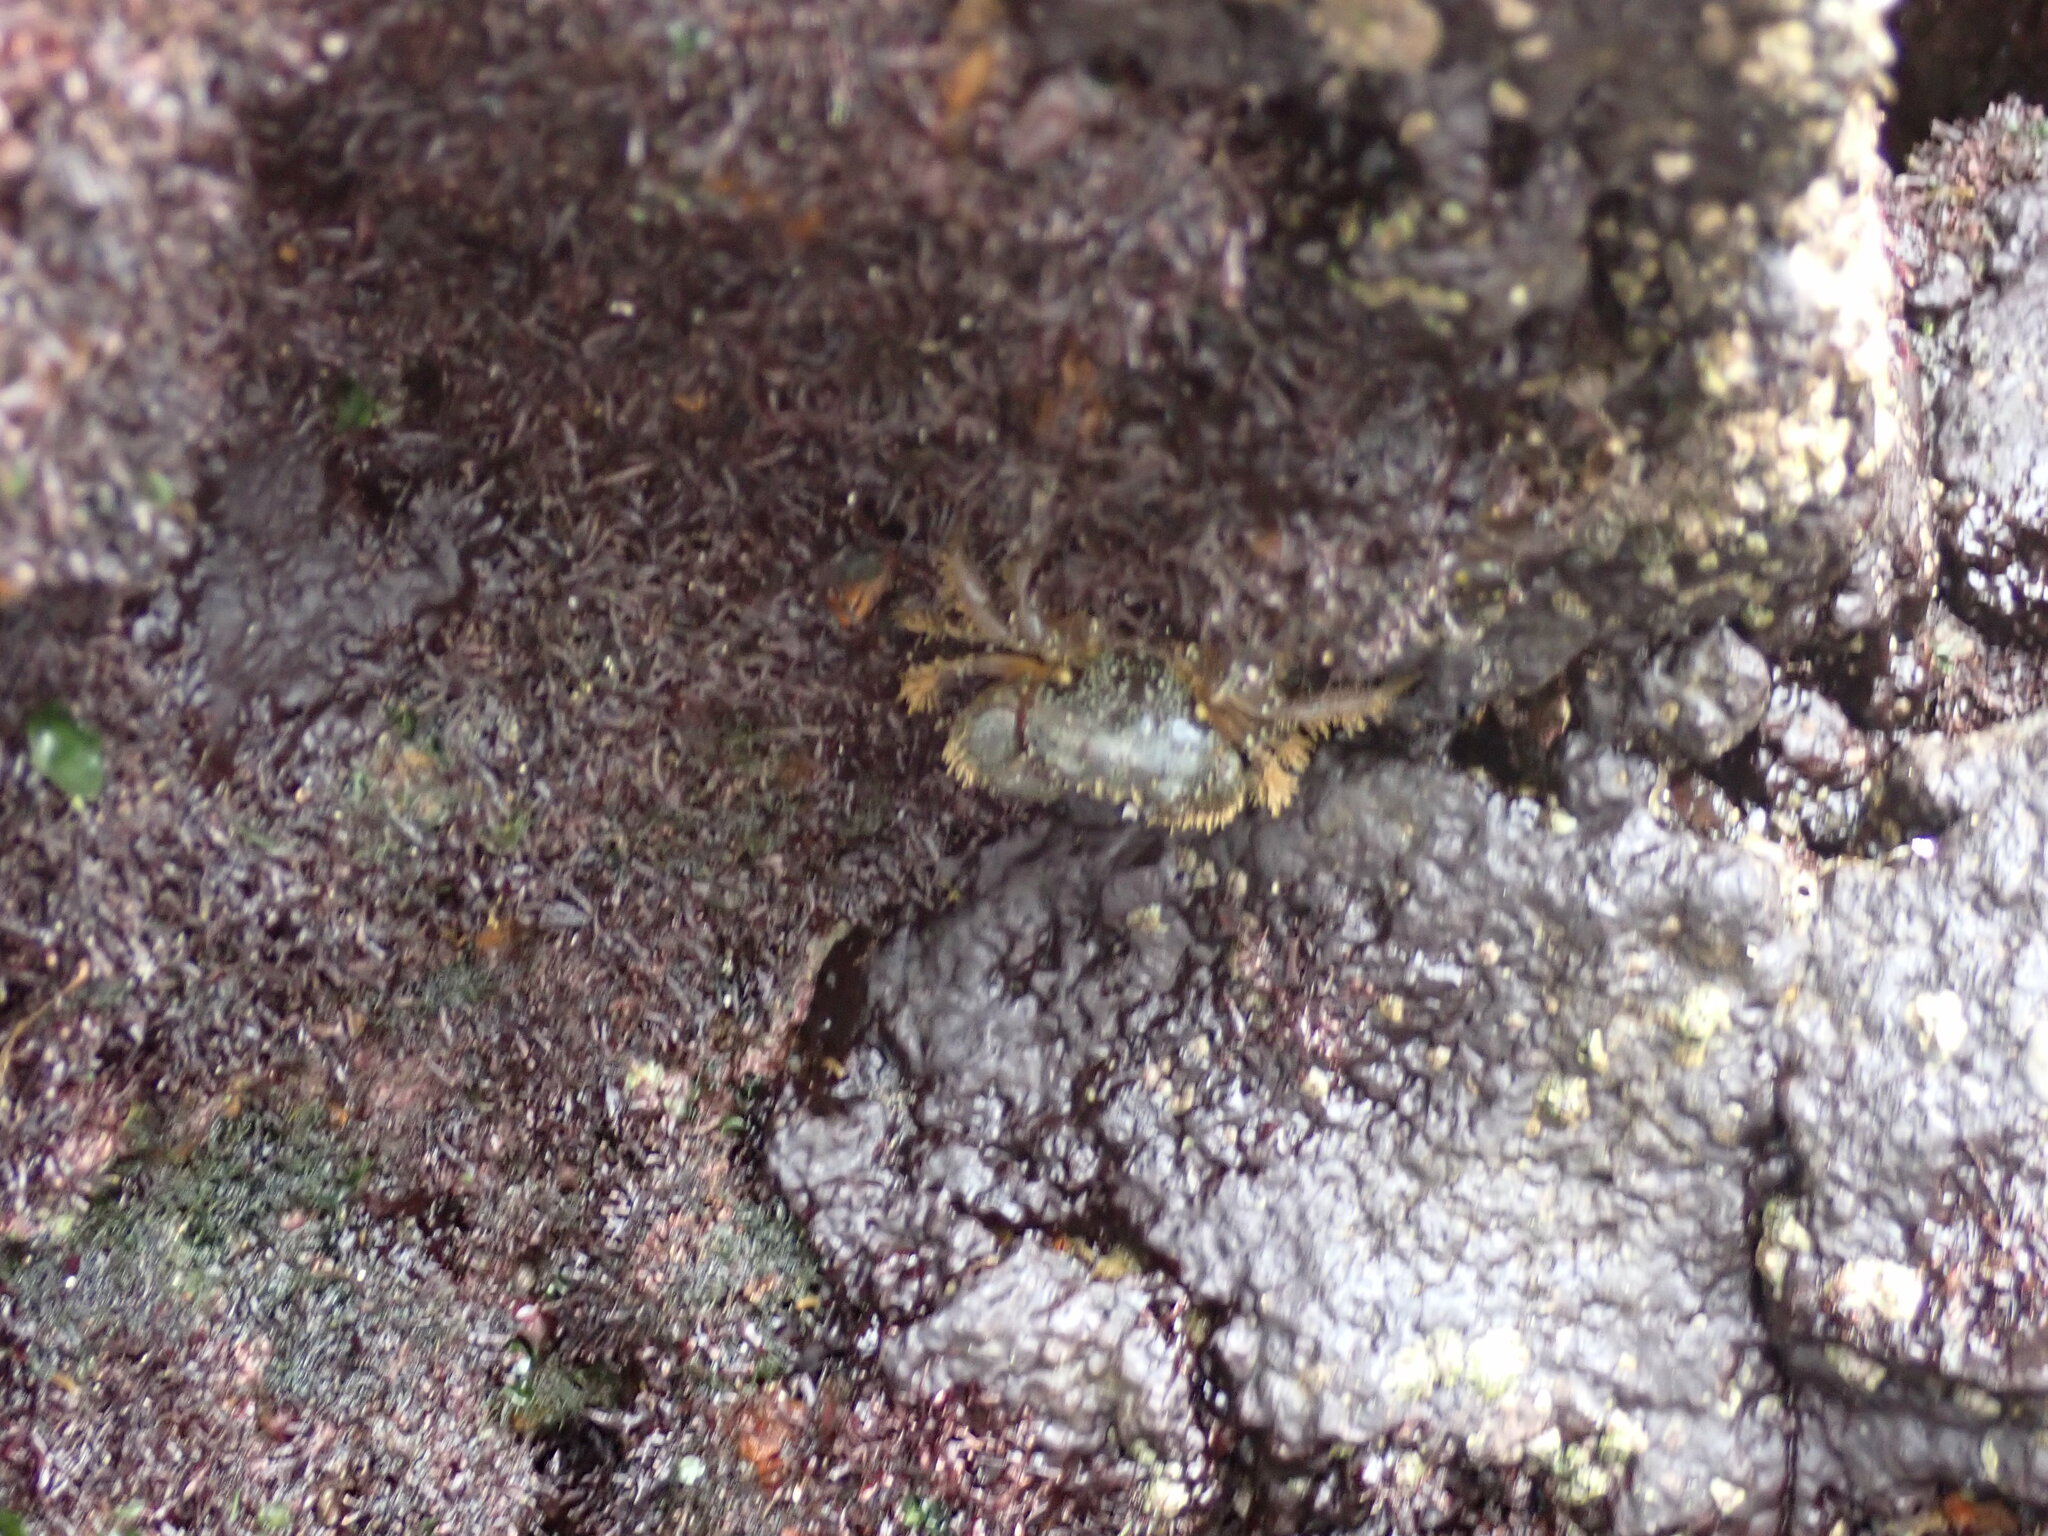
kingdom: Animalia
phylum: Arthropoda
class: Malacostraca
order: Decapoda
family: Eriphiidae
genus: Eriphia
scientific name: Eriphia verrucosa
